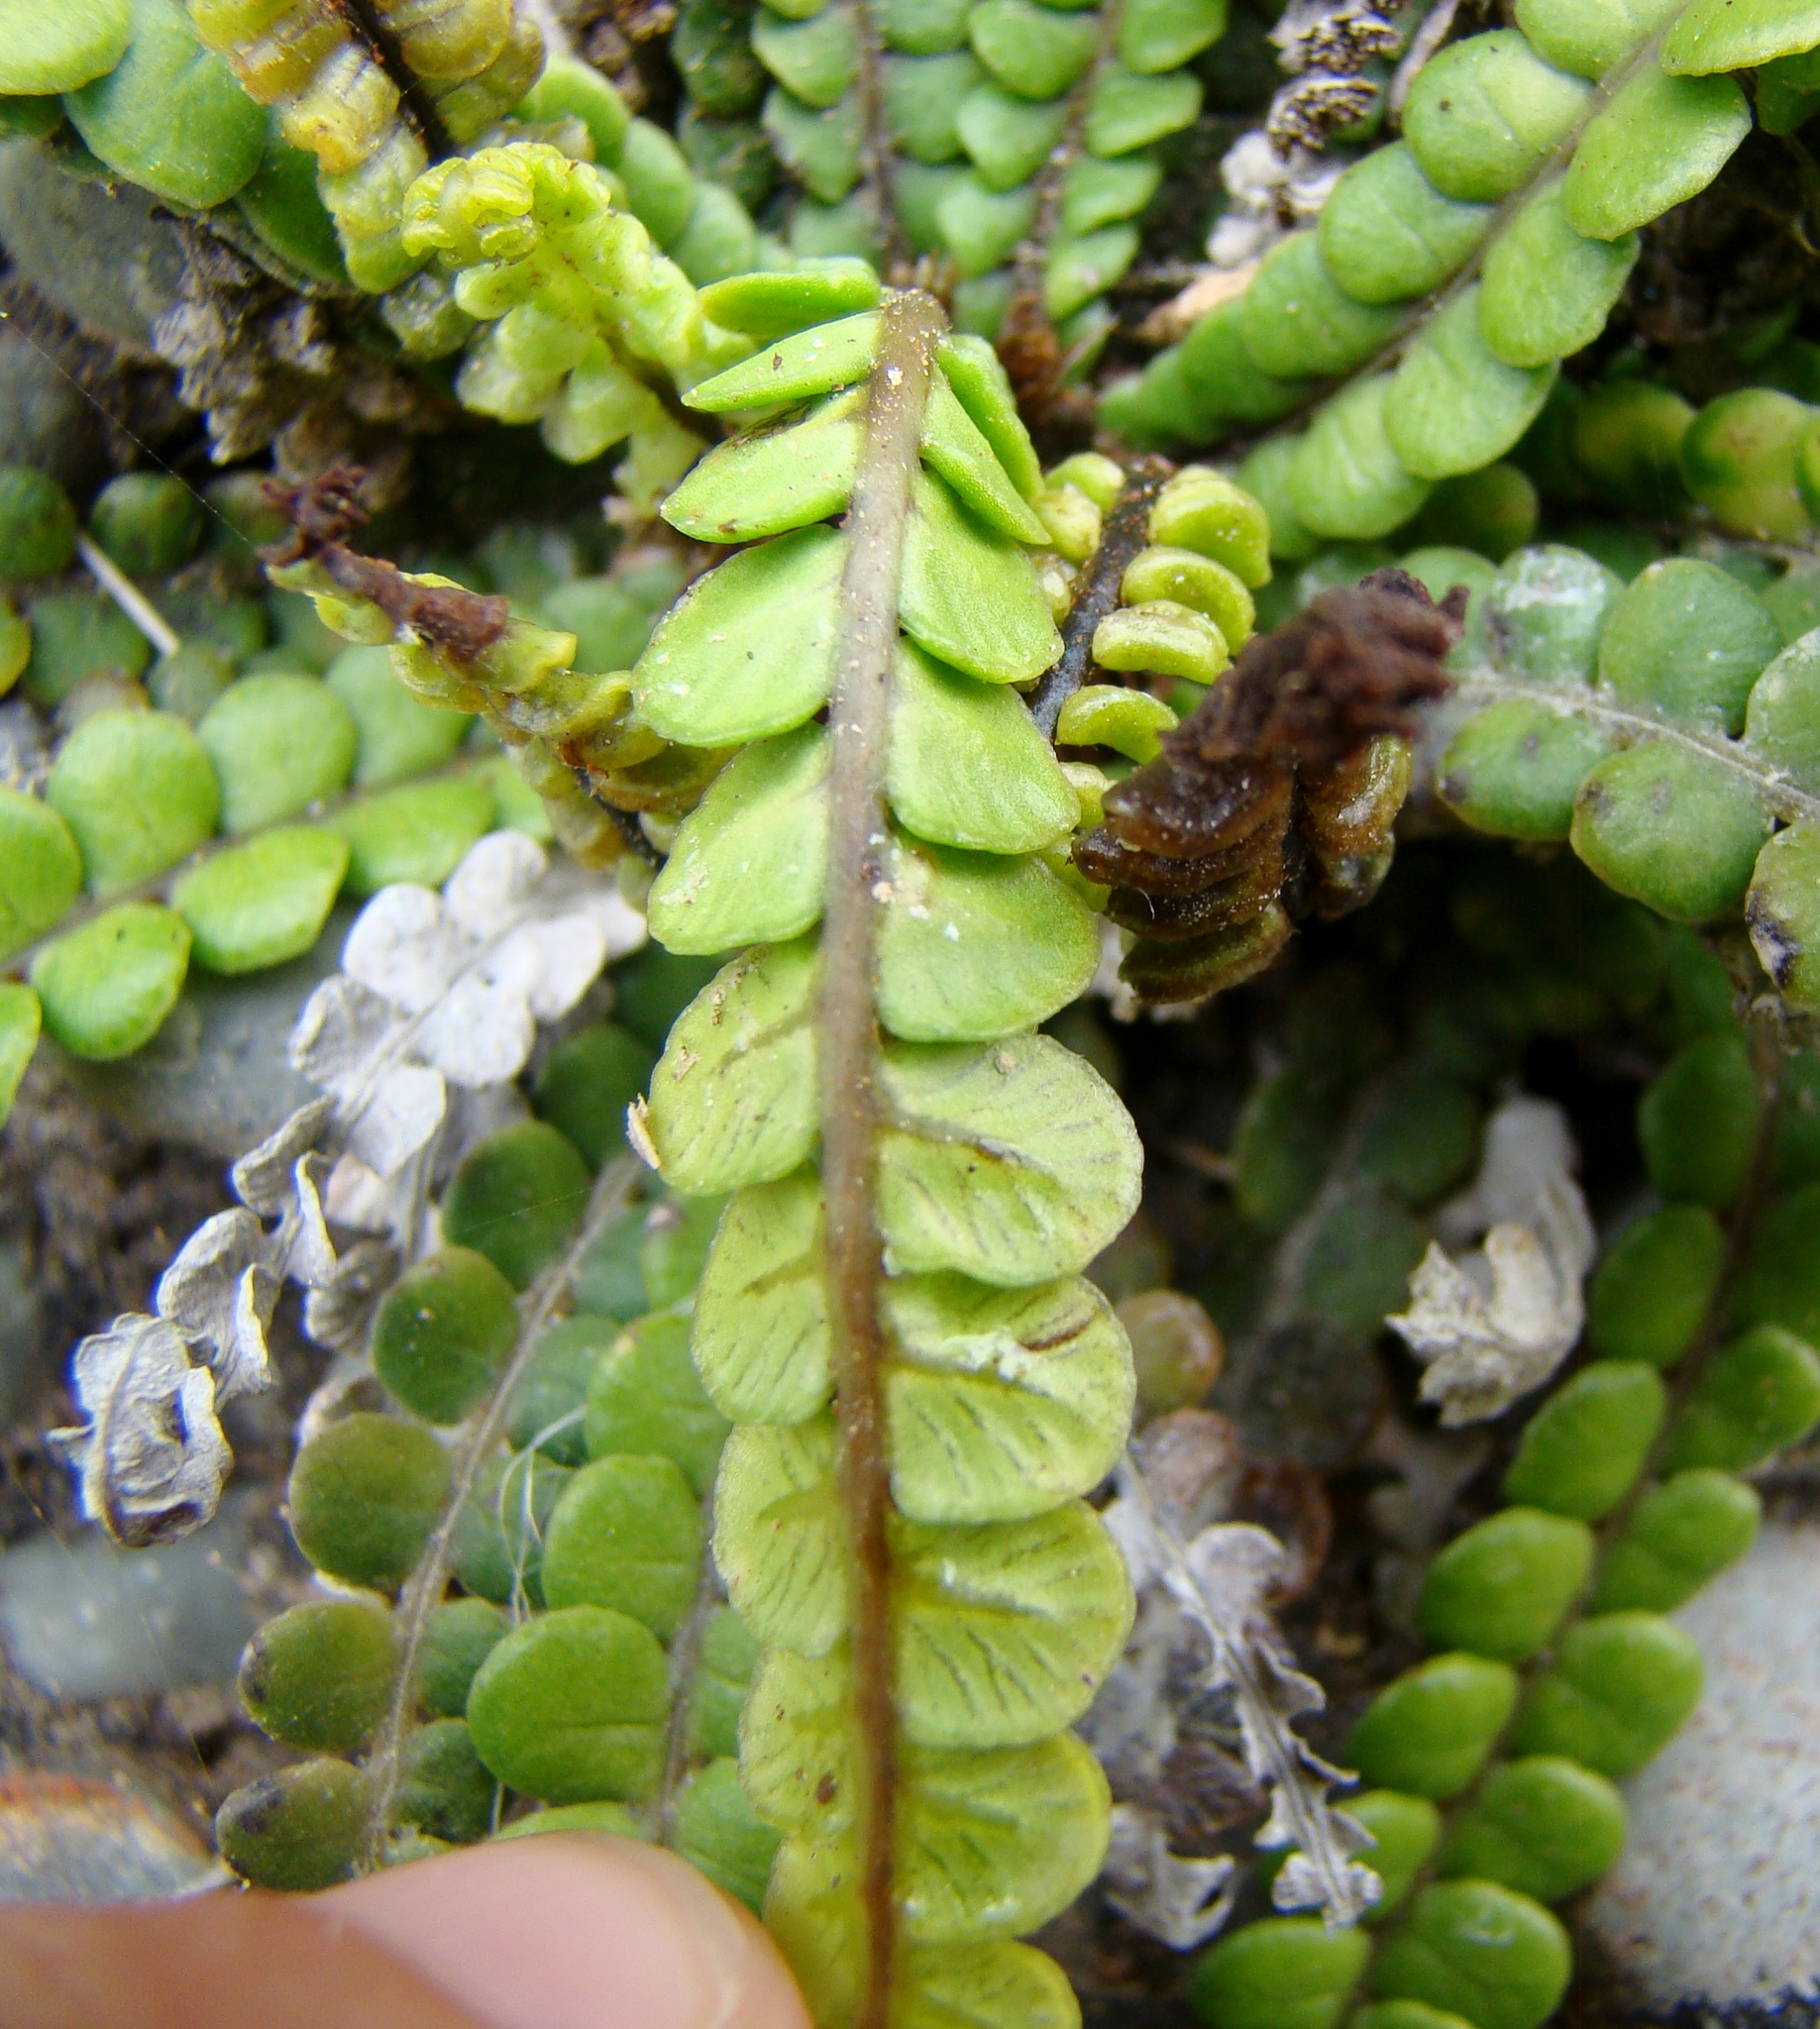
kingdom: Plantae
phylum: Tracheophyta
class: Polypodiopsida
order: Polypodiales
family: Blechnaceae
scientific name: Blechnaceae
